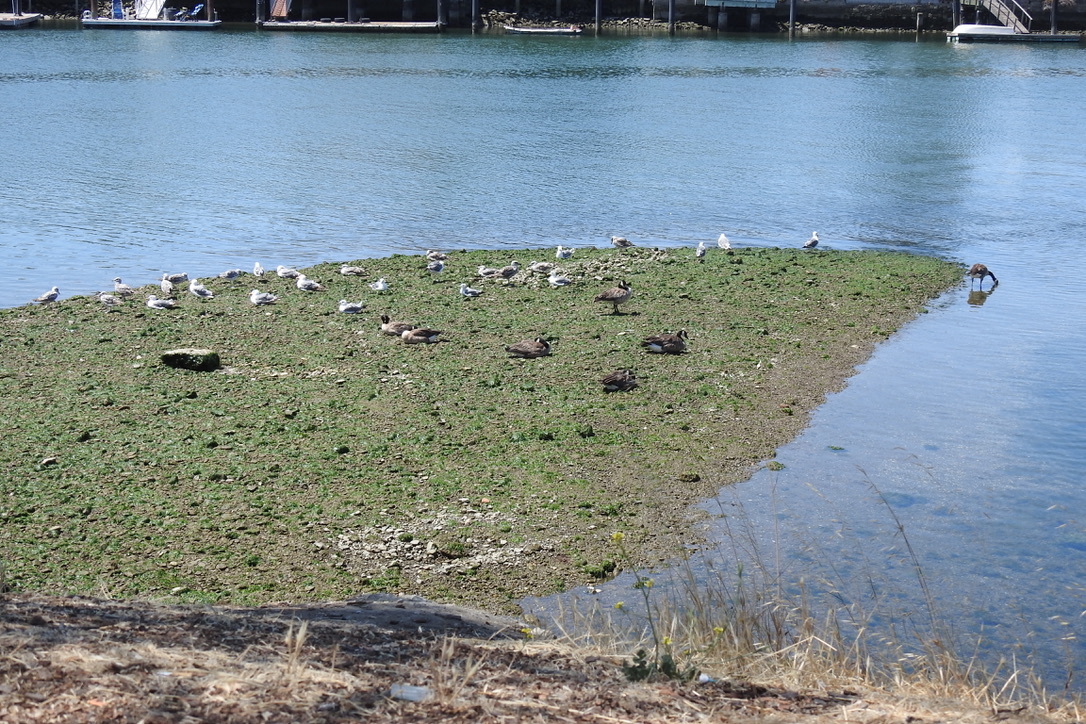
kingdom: Animalia
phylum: Chordata
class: Aves
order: Charadriiformes
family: Laridae
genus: Larus
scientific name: Larus occidentalis
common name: Western gull
